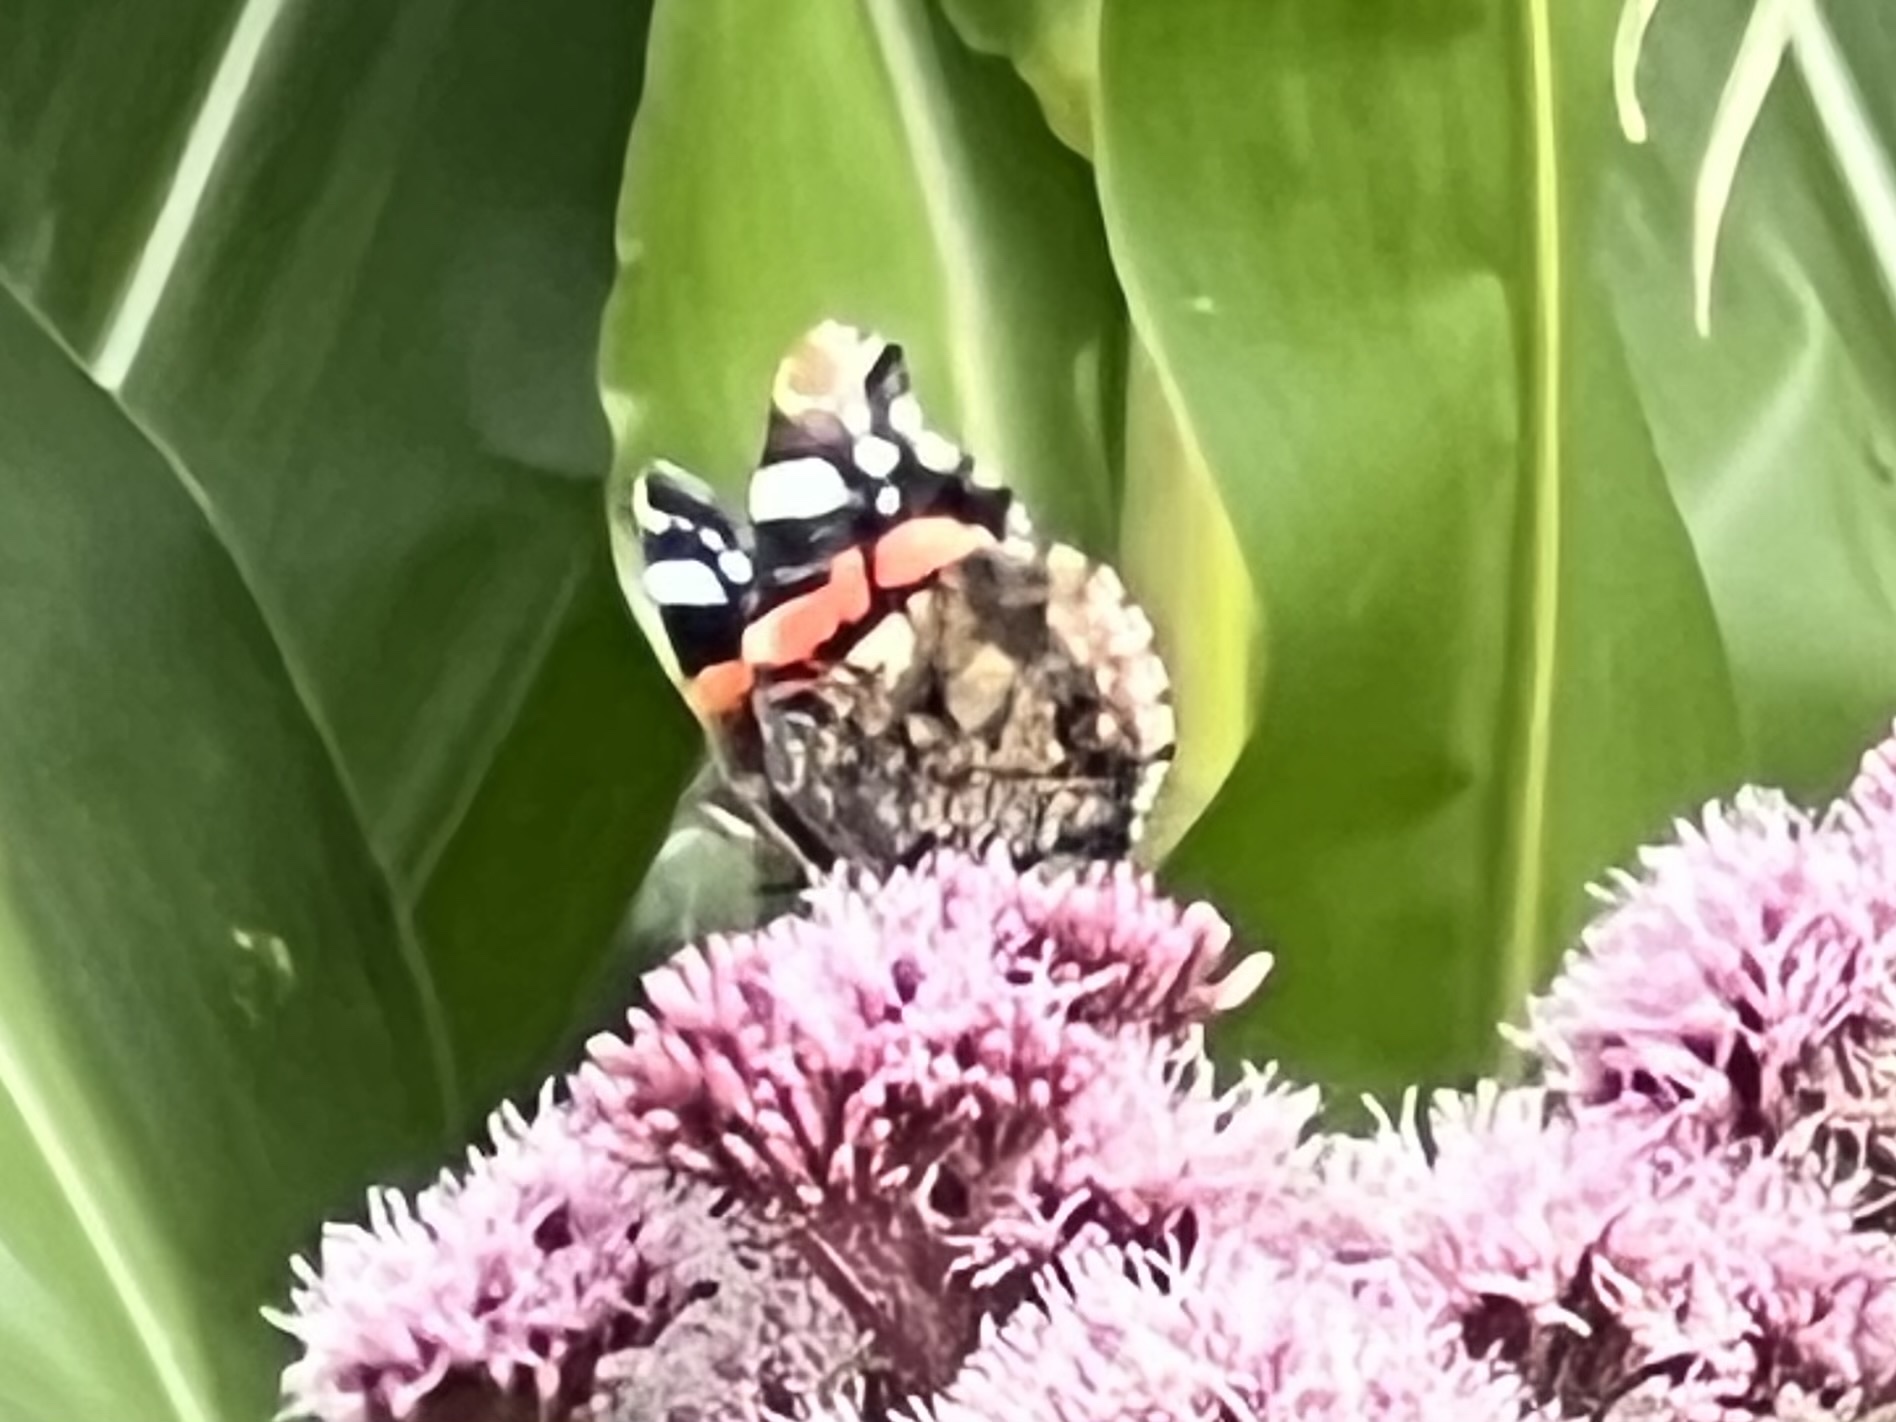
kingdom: Animalia
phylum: Arthropoda
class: Insecta
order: Lepidoptera
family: Nymphalidae
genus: Vanessa
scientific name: Vanessa atalanta
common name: Red admiral
